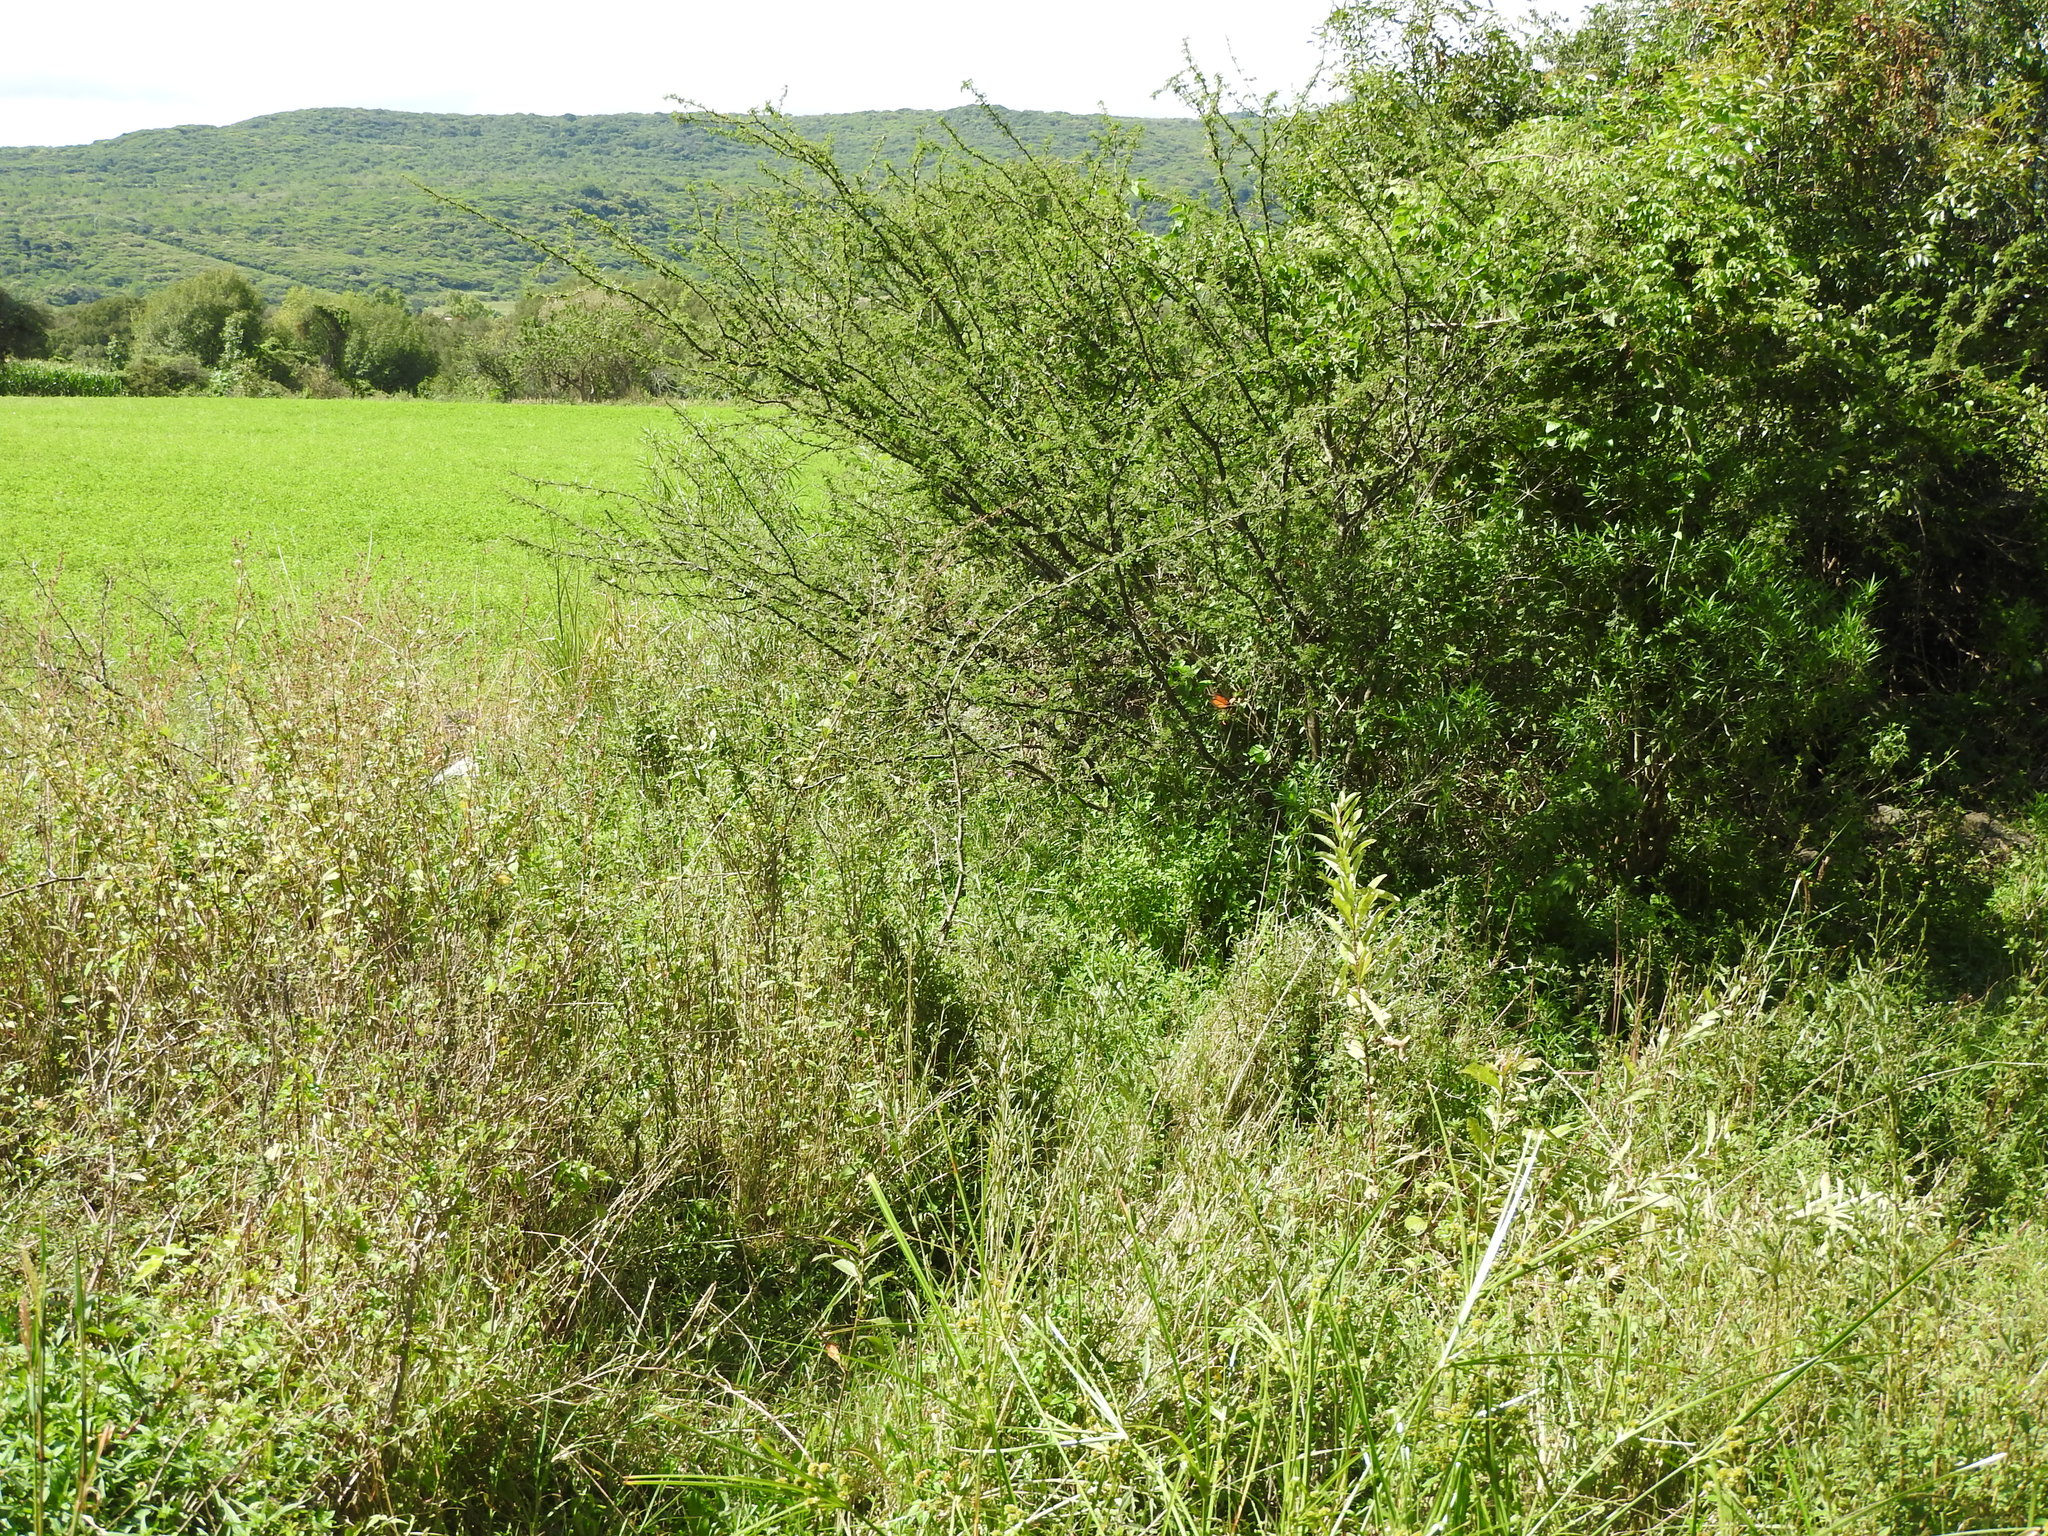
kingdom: Animalia
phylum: Arthropoda
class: Insecta
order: Lepidoptera
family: Nymphalidae
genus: Danaus
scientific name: Danaus plexippus
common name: Monarch
